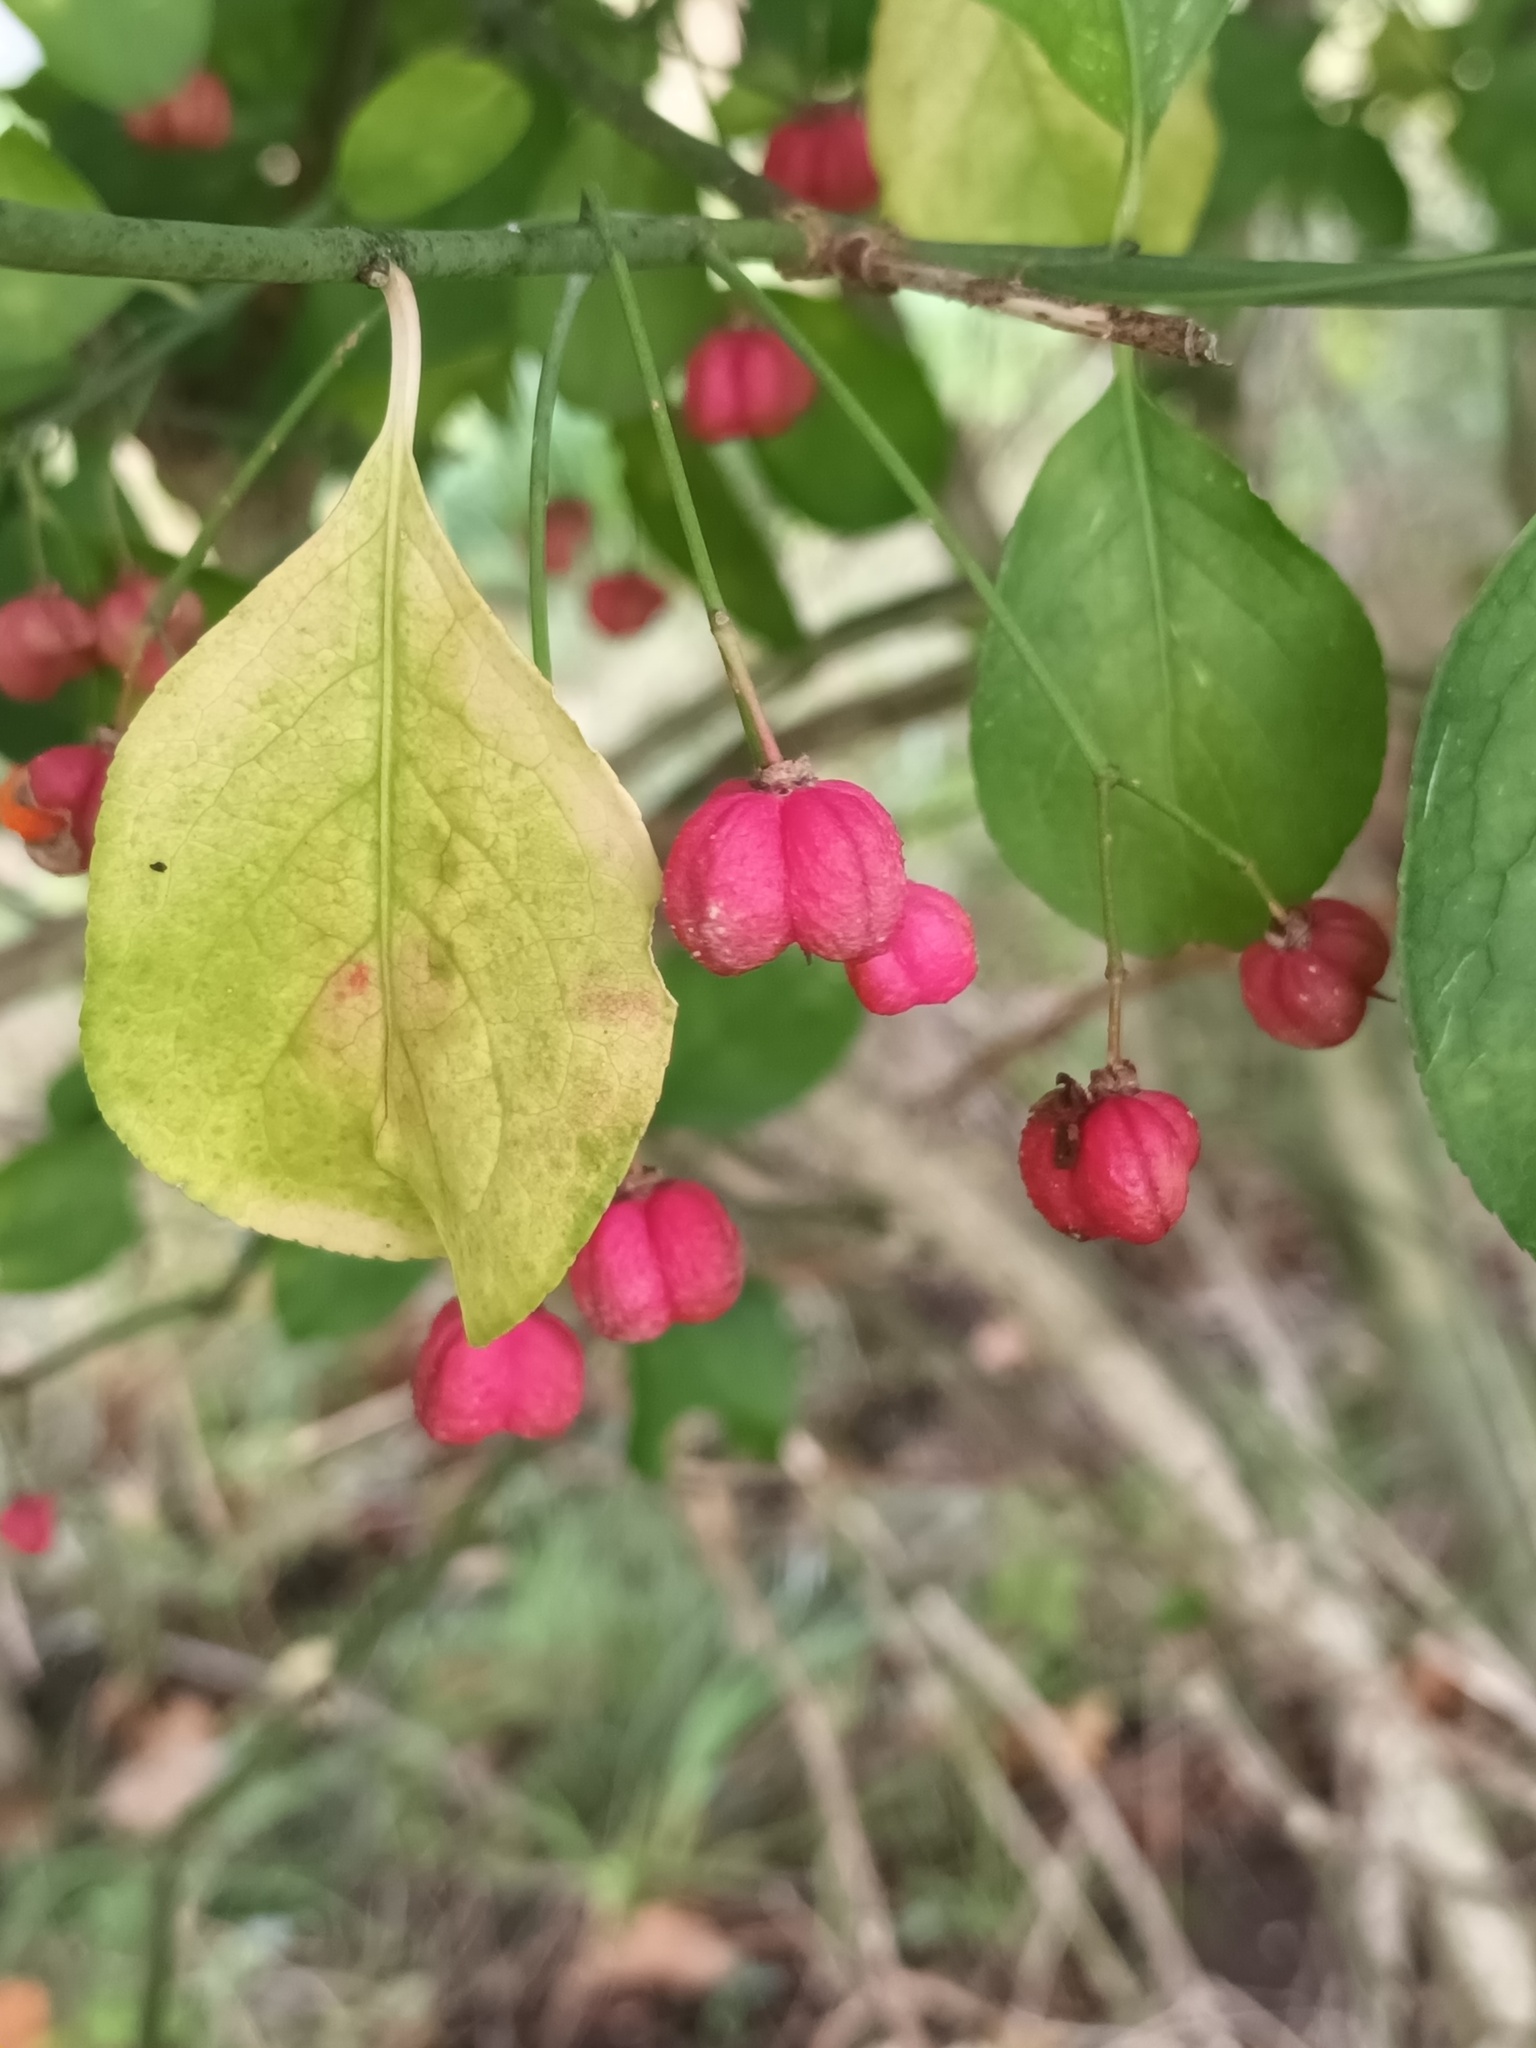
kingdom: Plantae
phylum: Tracheophyta
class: Magnoliopsida
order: Celastrales
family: Celastraceae
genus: Euonymus
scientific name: Euonymus europaeus
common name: Spindle
